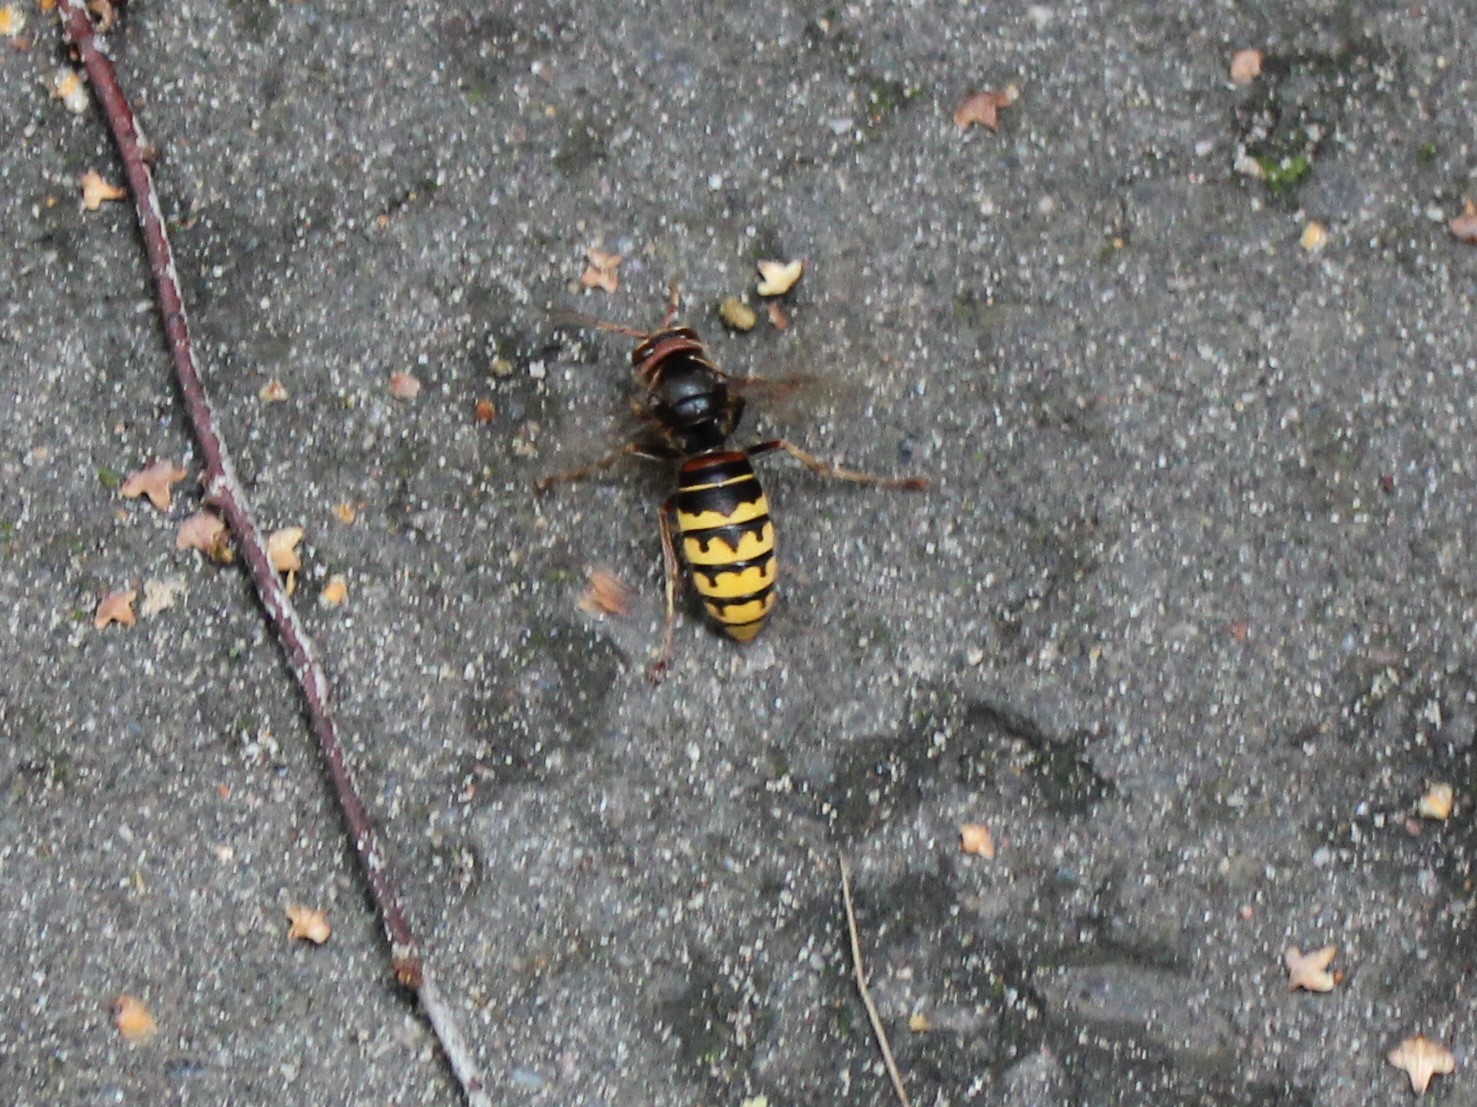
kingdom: Animalia
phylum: Arthropoda
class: Insecta
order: Hymenoptera
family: Vespidae
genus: Vespa
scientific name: Vespa crabro
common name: Hornet
